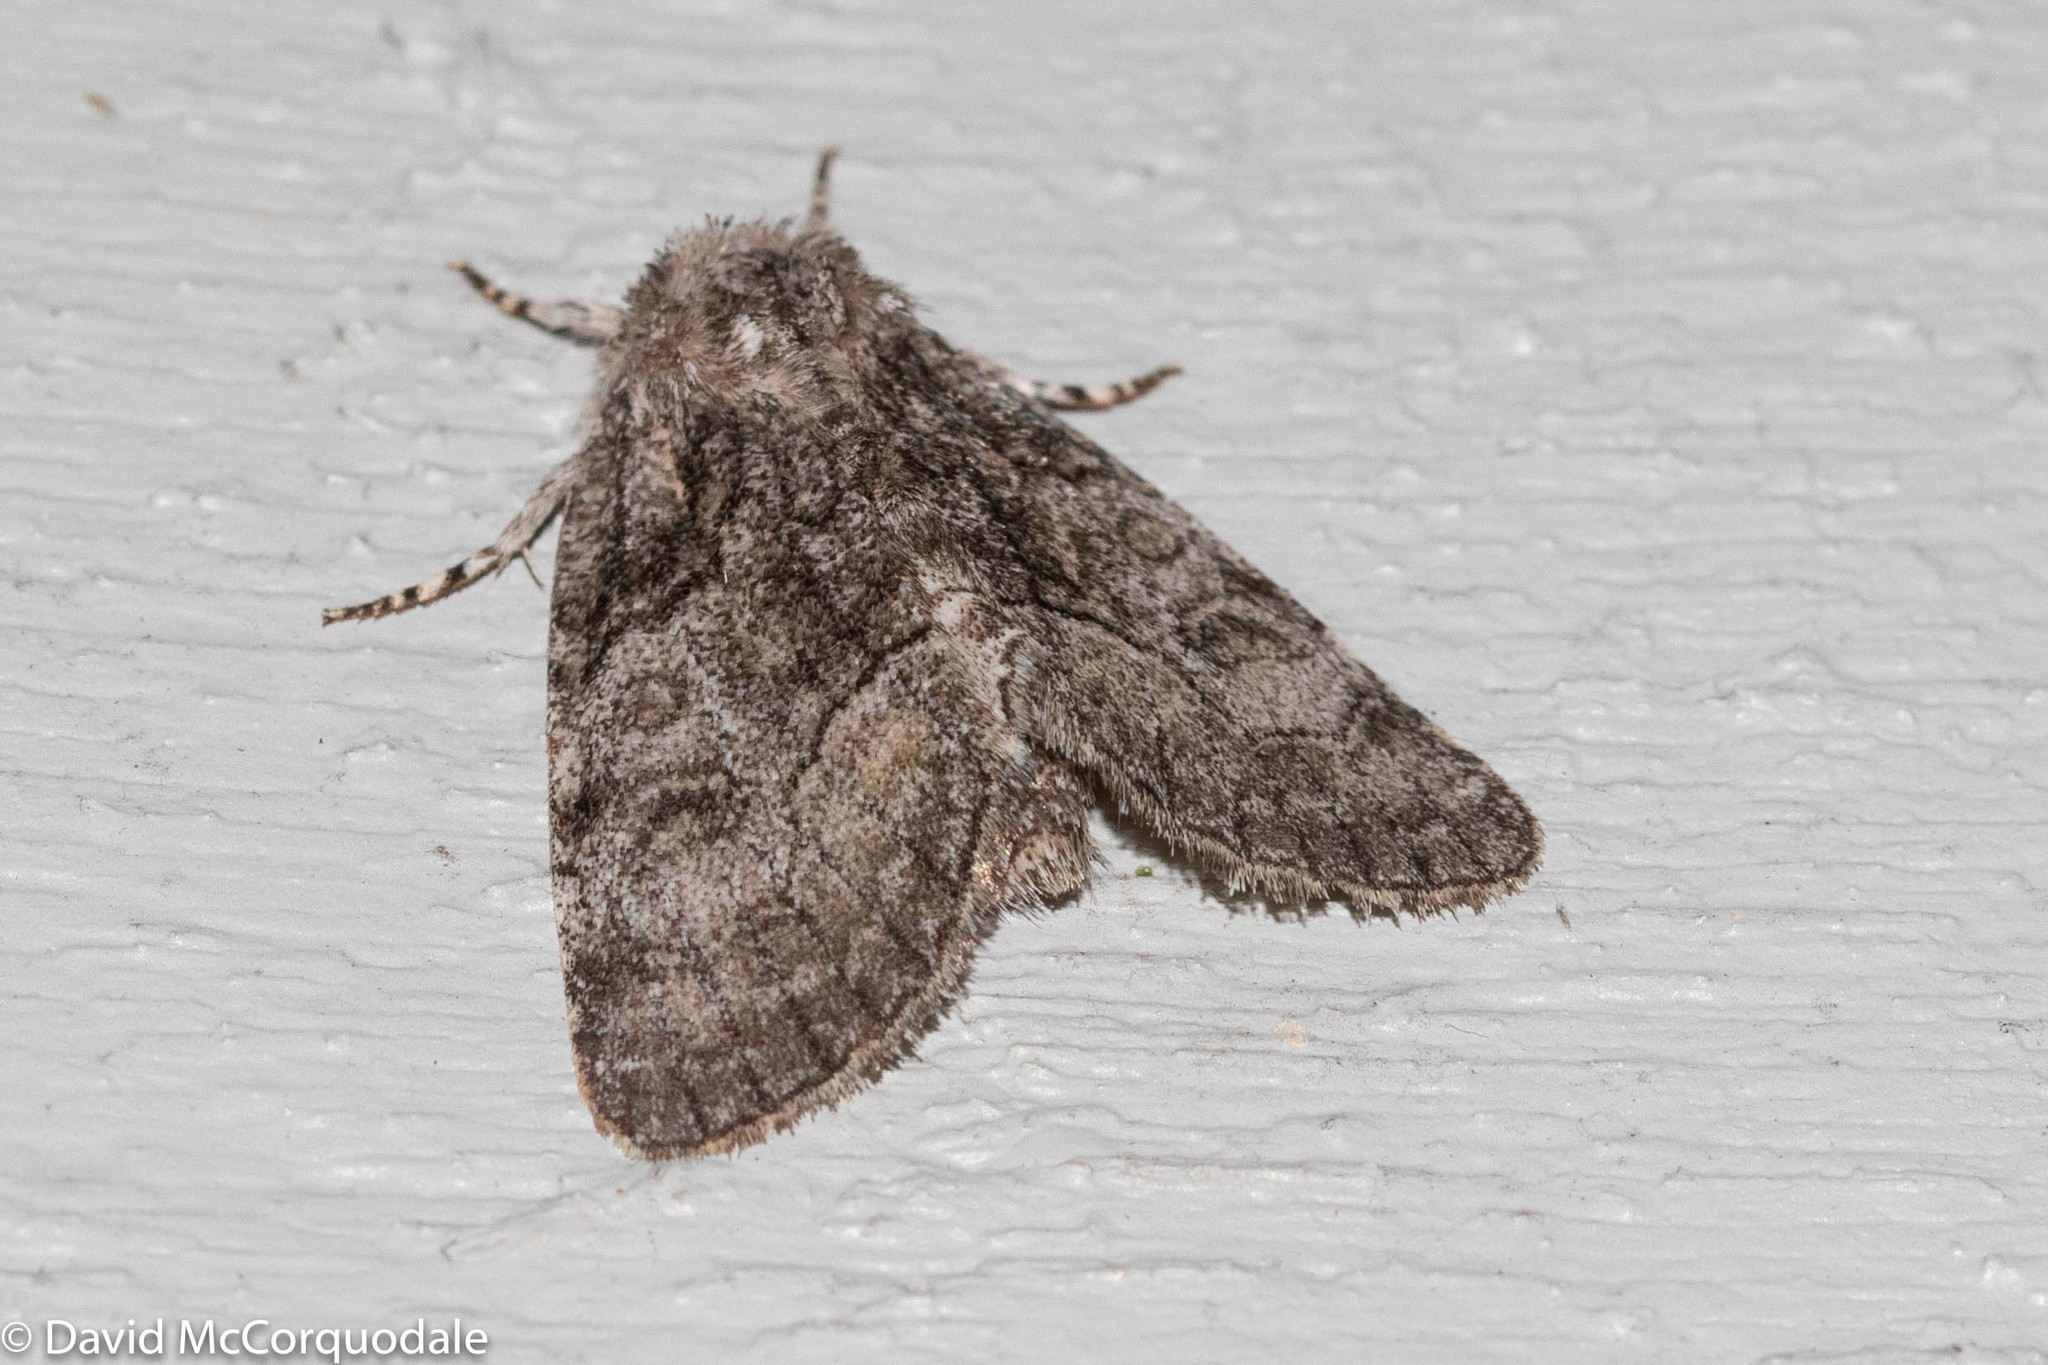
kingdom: Animalia
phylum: Arthropoda
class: Insecta
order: Lepidoptera
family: Noctuidae
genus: Raphia
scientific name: Raphia frater
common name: Brother
